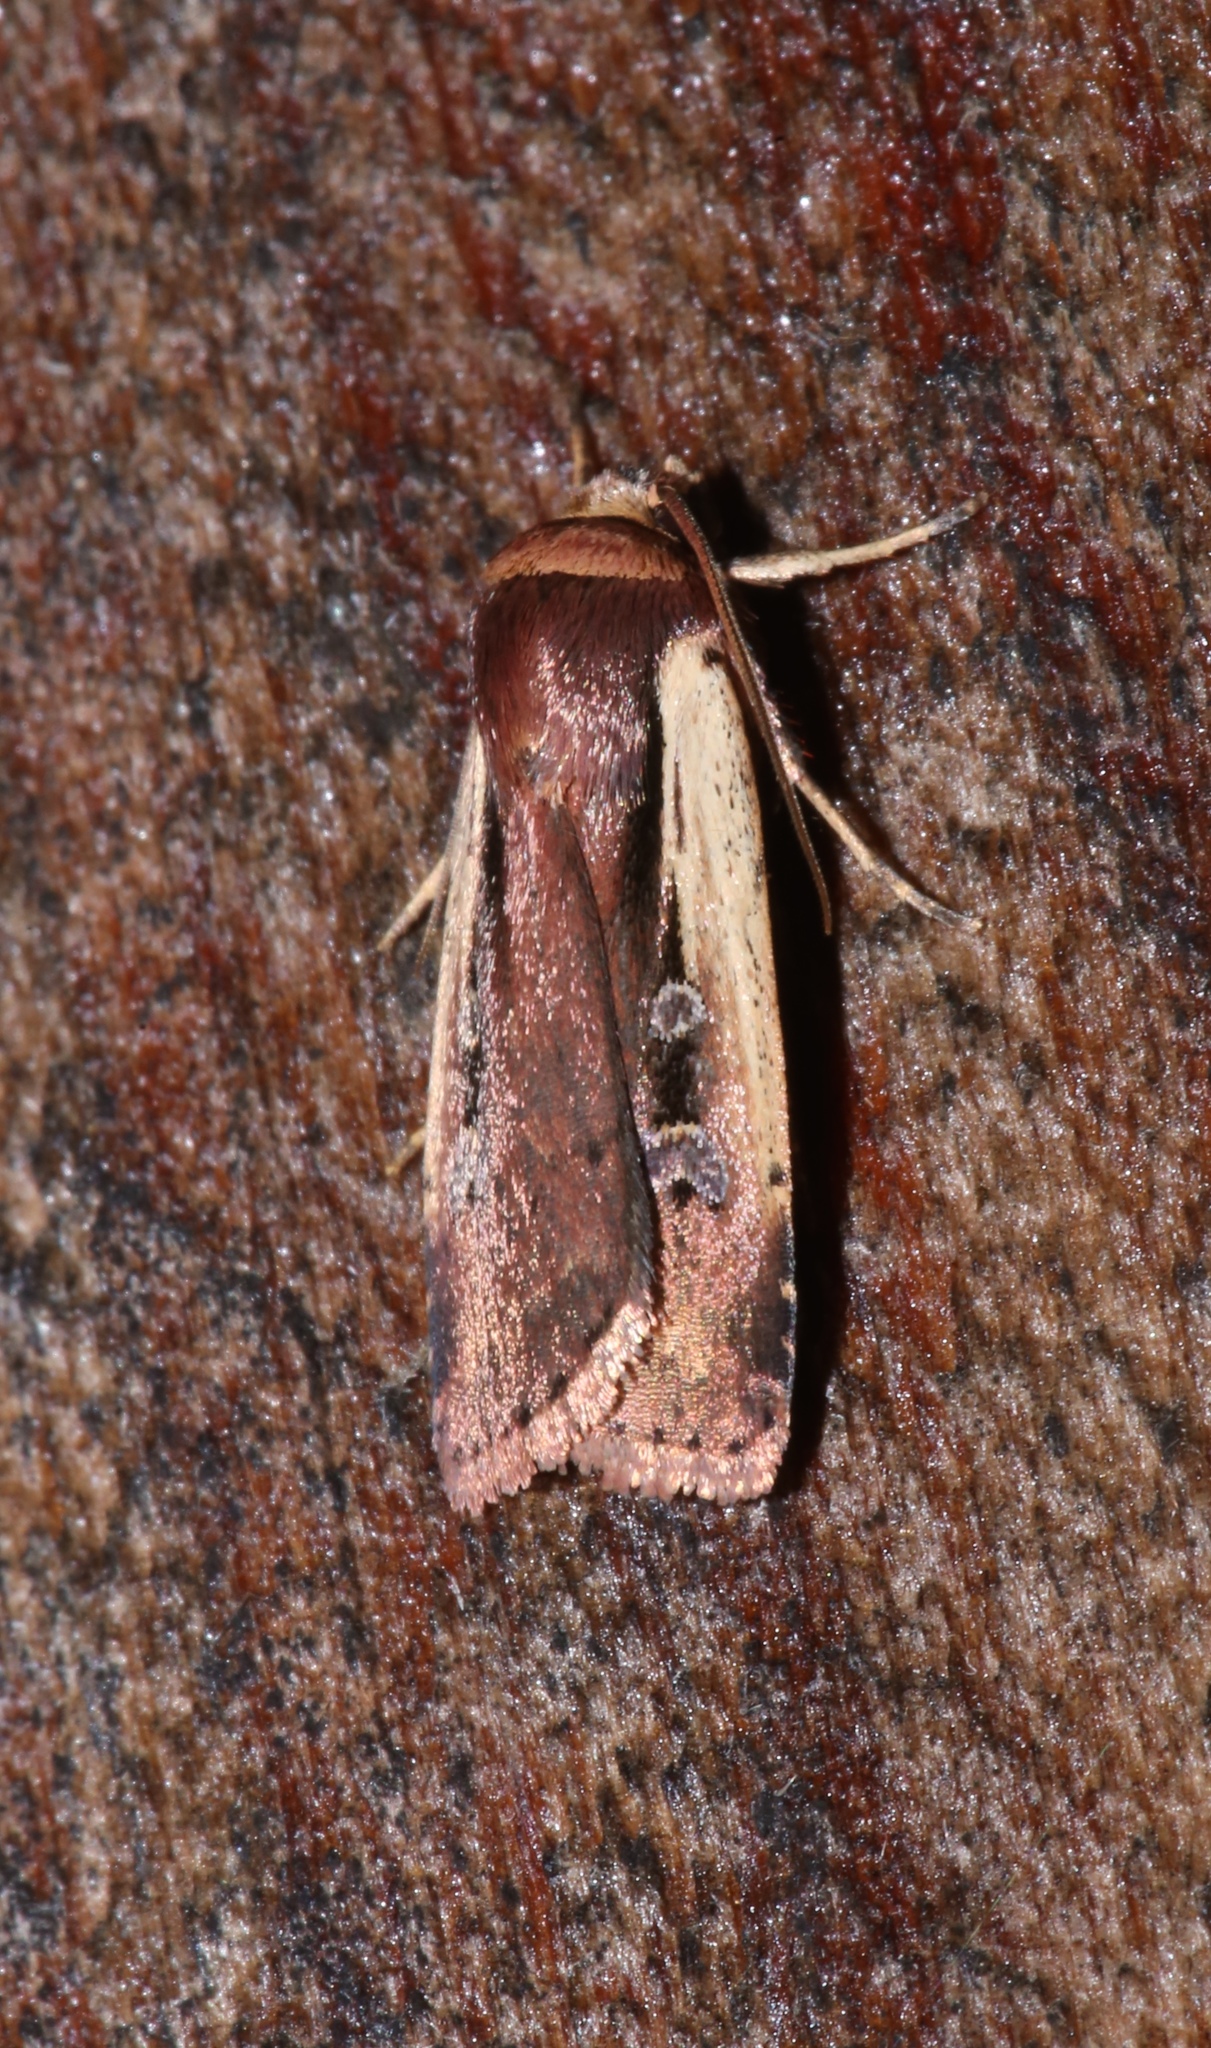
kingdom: Animalia
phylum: Arthropoda
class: Insecta
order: Lepidoptera
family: Noctuidae
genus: Ochropleura
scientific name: Ochropleura implecta
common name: Flame-shouldered dart
